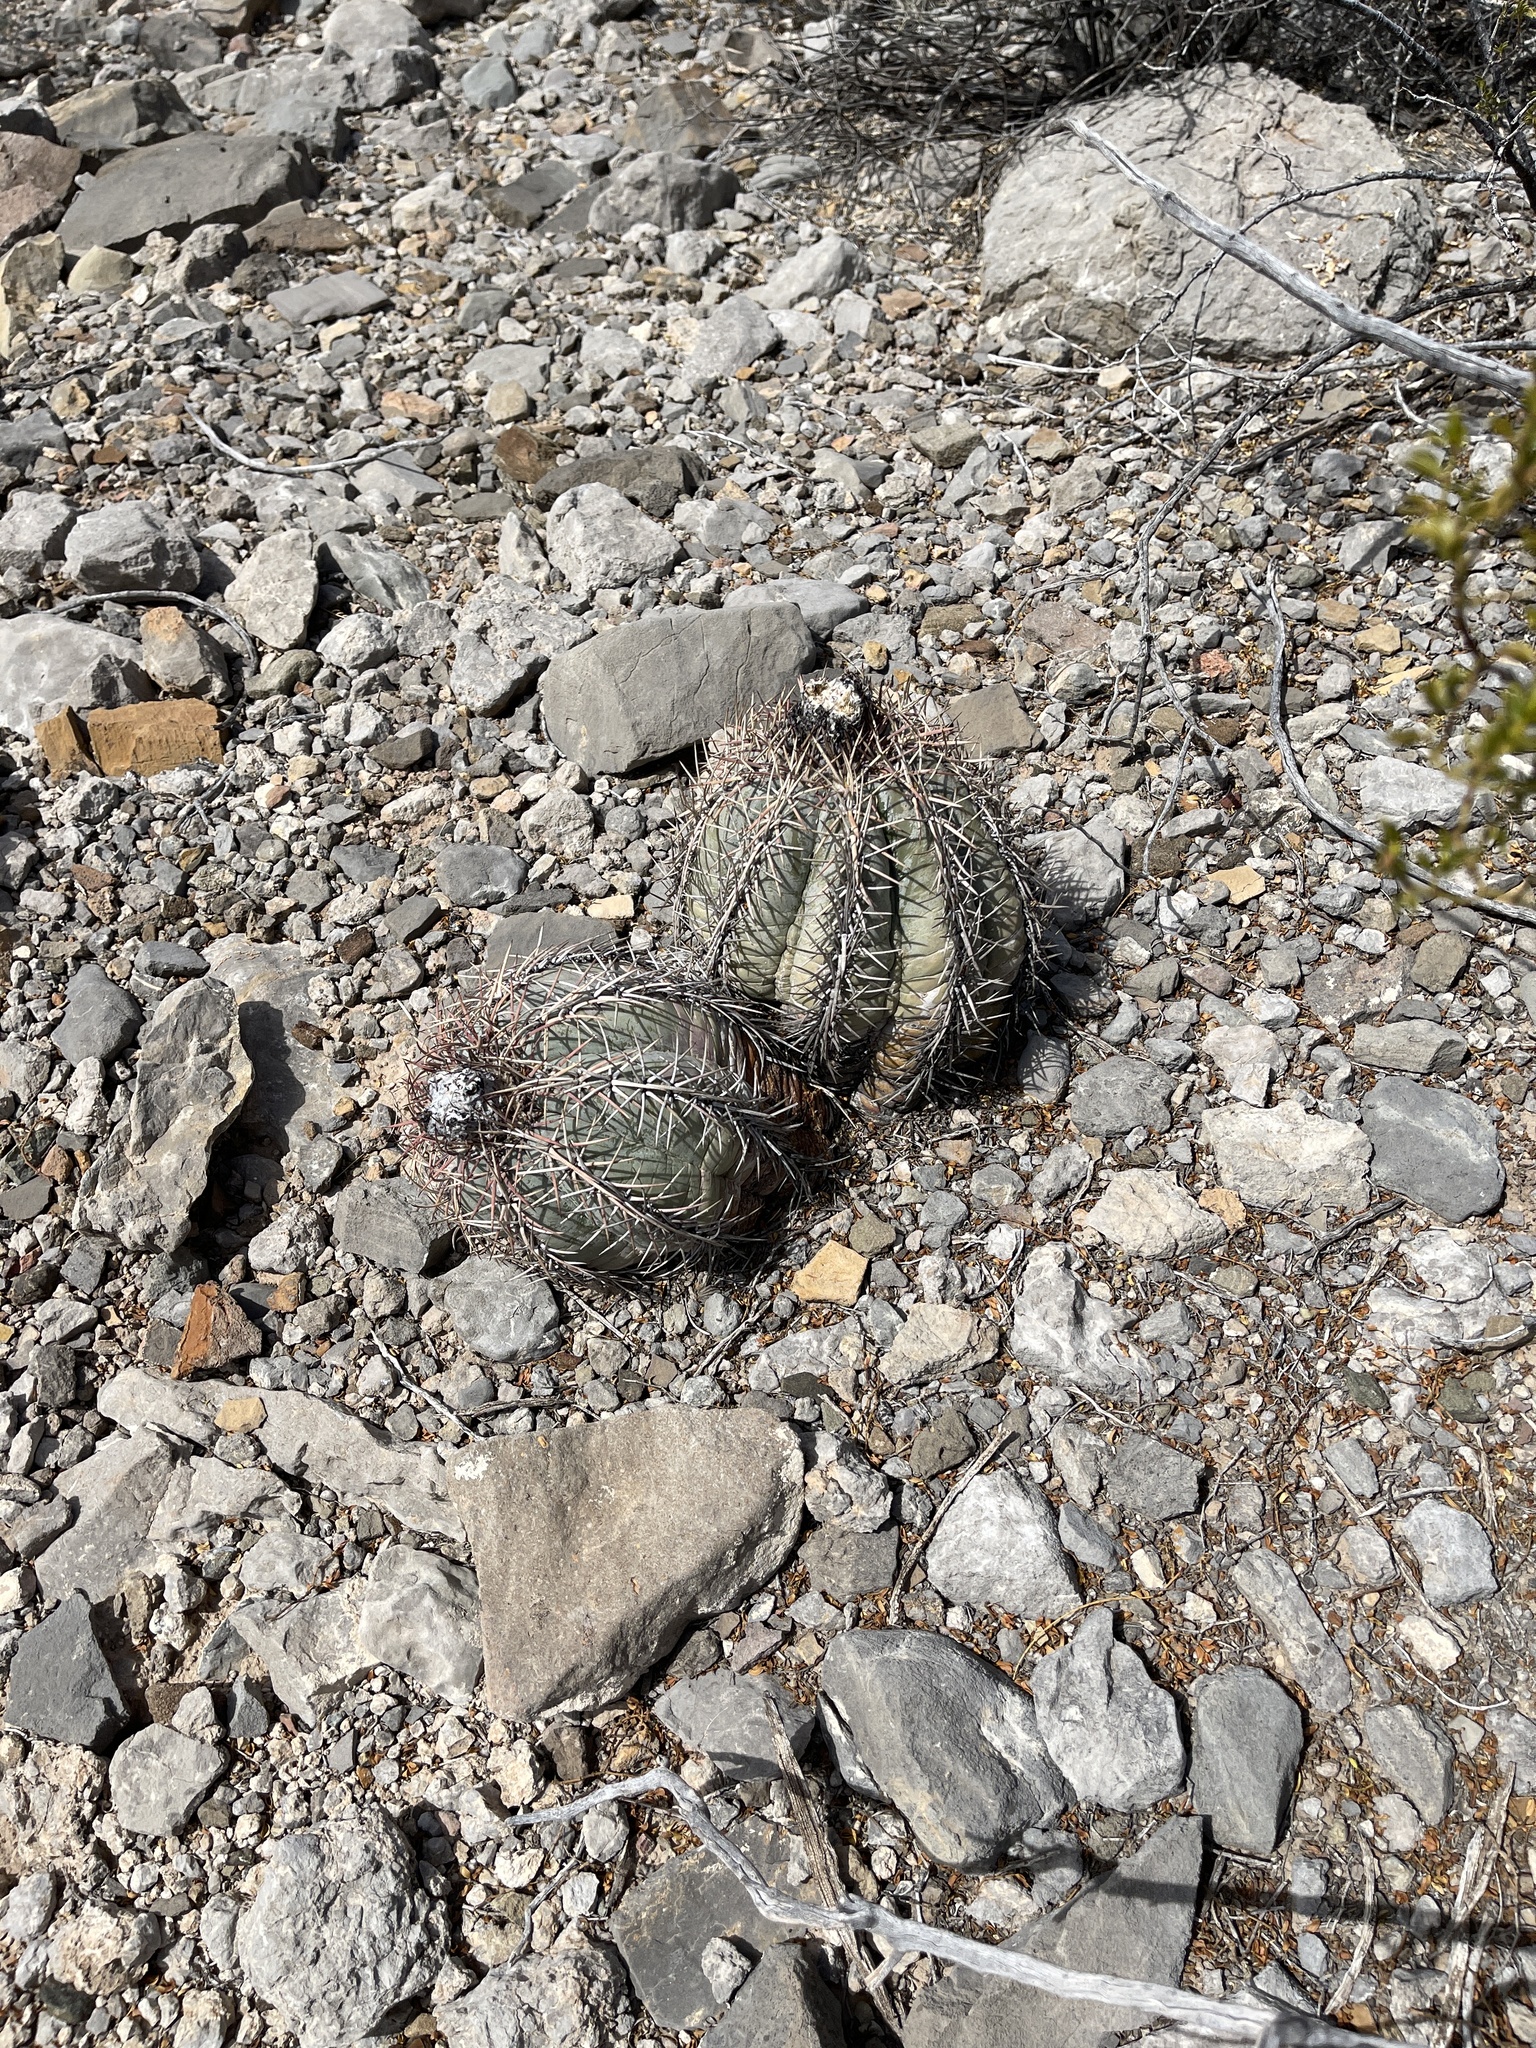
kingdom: Plantae
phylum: Tracheophyta
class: Magnoliopsida
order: Caryophyllales
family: Cactaceae
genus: Echinocactus
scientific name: Echinocactus horizonthalonius
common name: Devilshead
